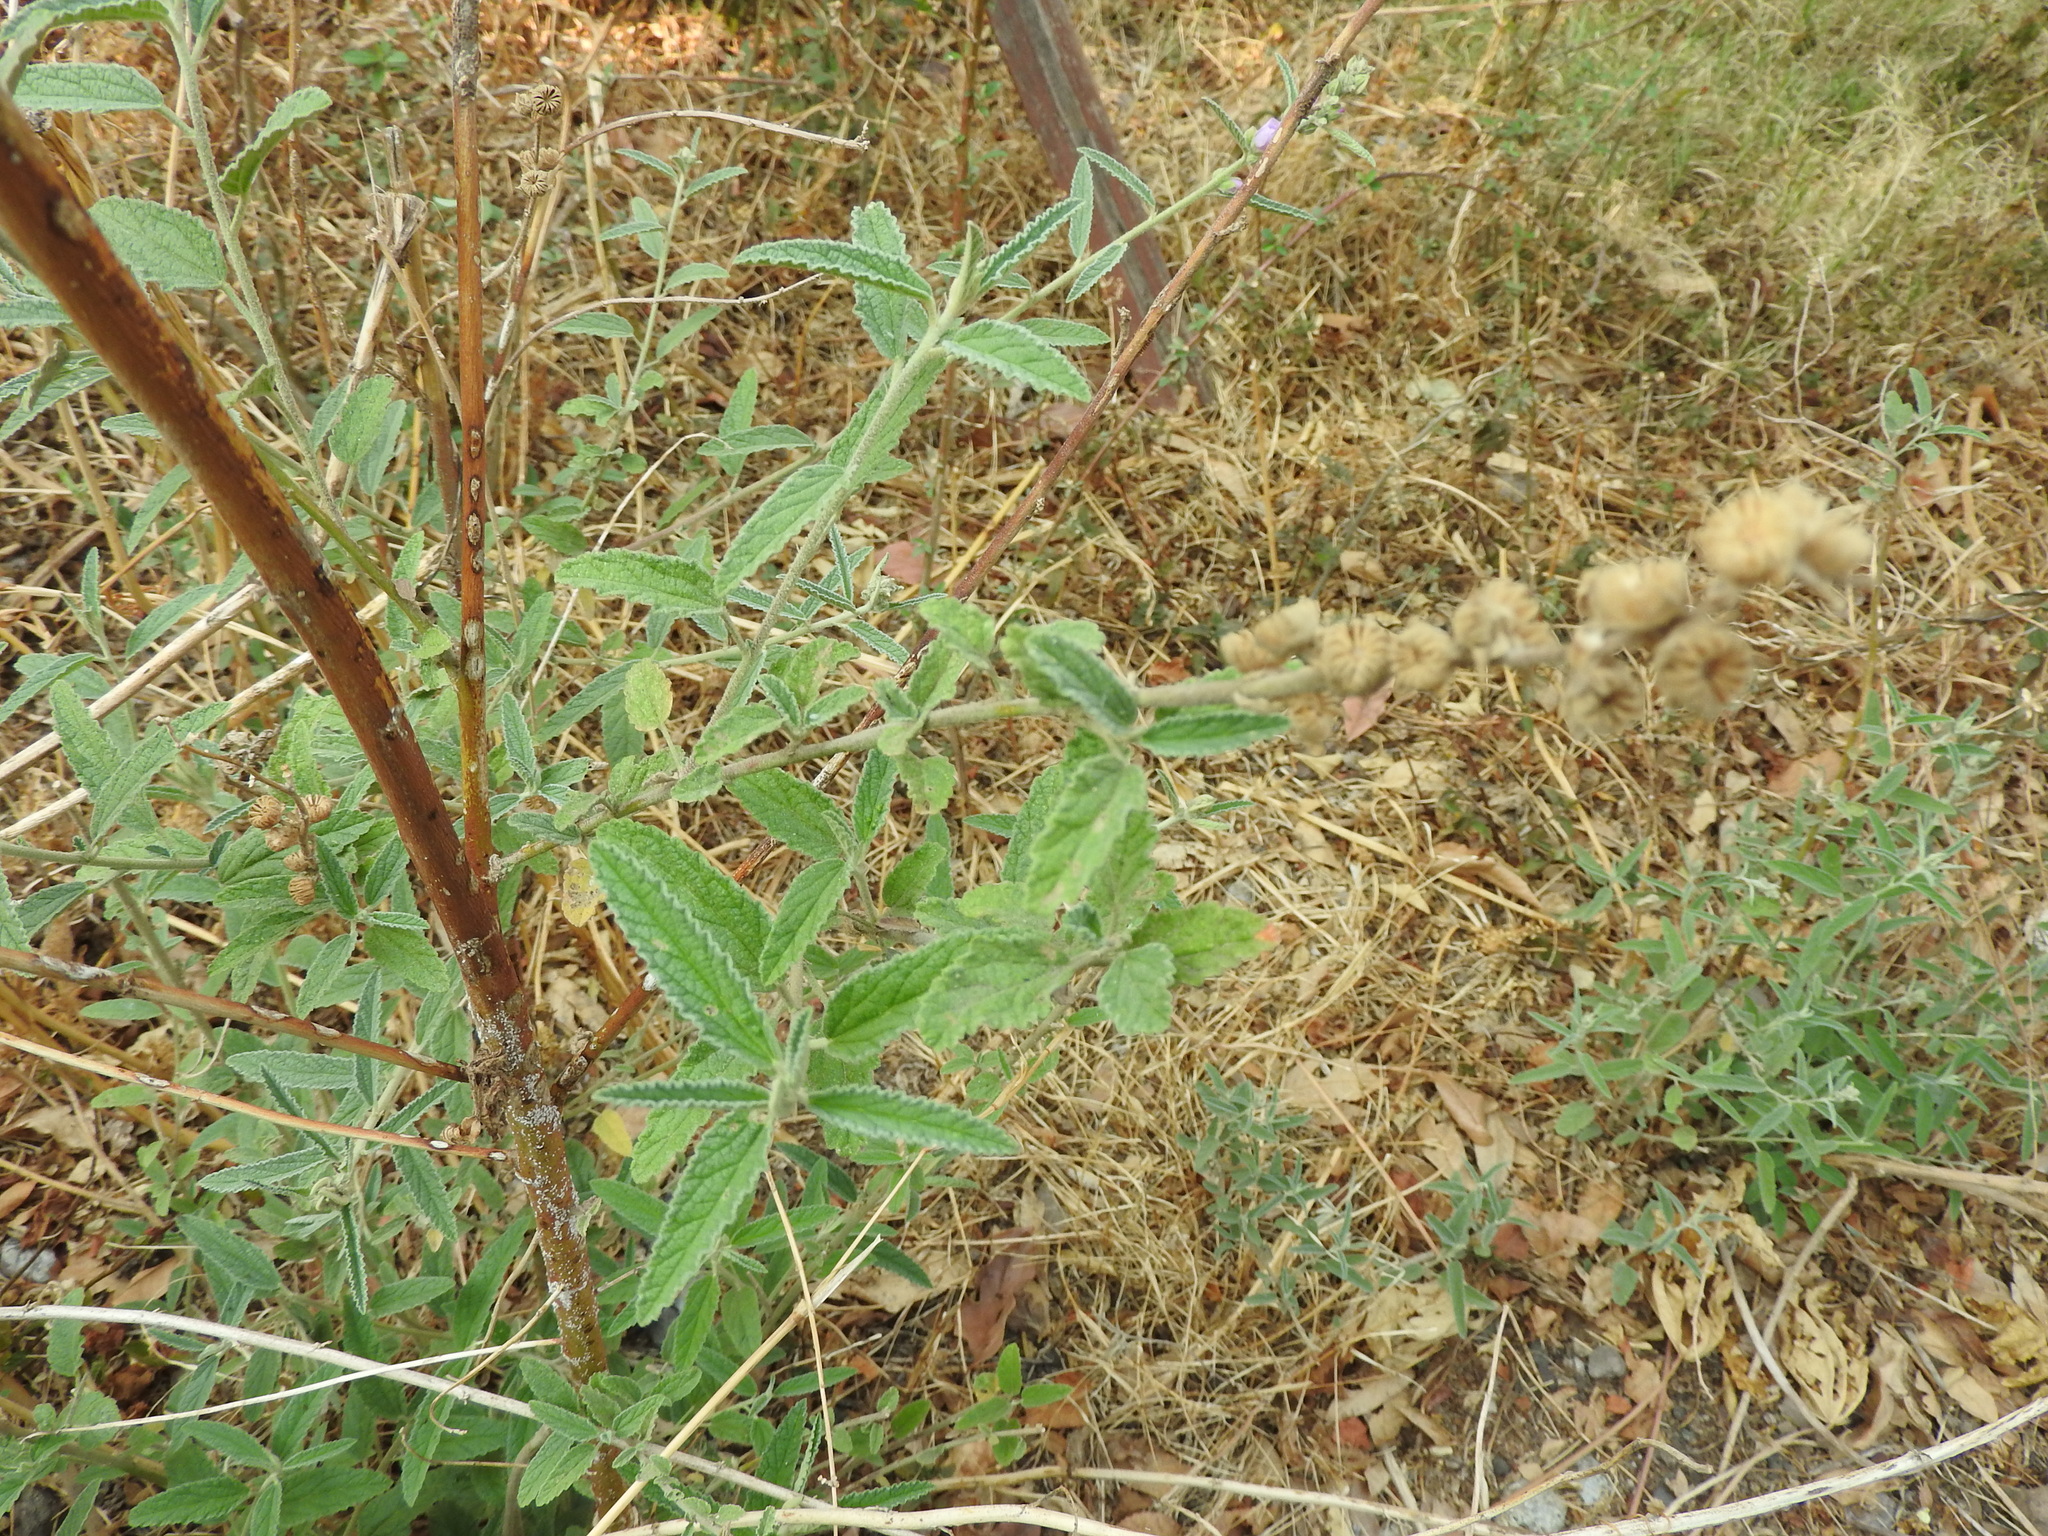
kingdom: Plantae
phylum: Tracheophyta
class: Magnoliopsida
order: Malvales
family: Malvaceae
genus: Sphaeralcea
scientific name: Sphaeralcea angustifolia
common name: Copper globe-mallow
